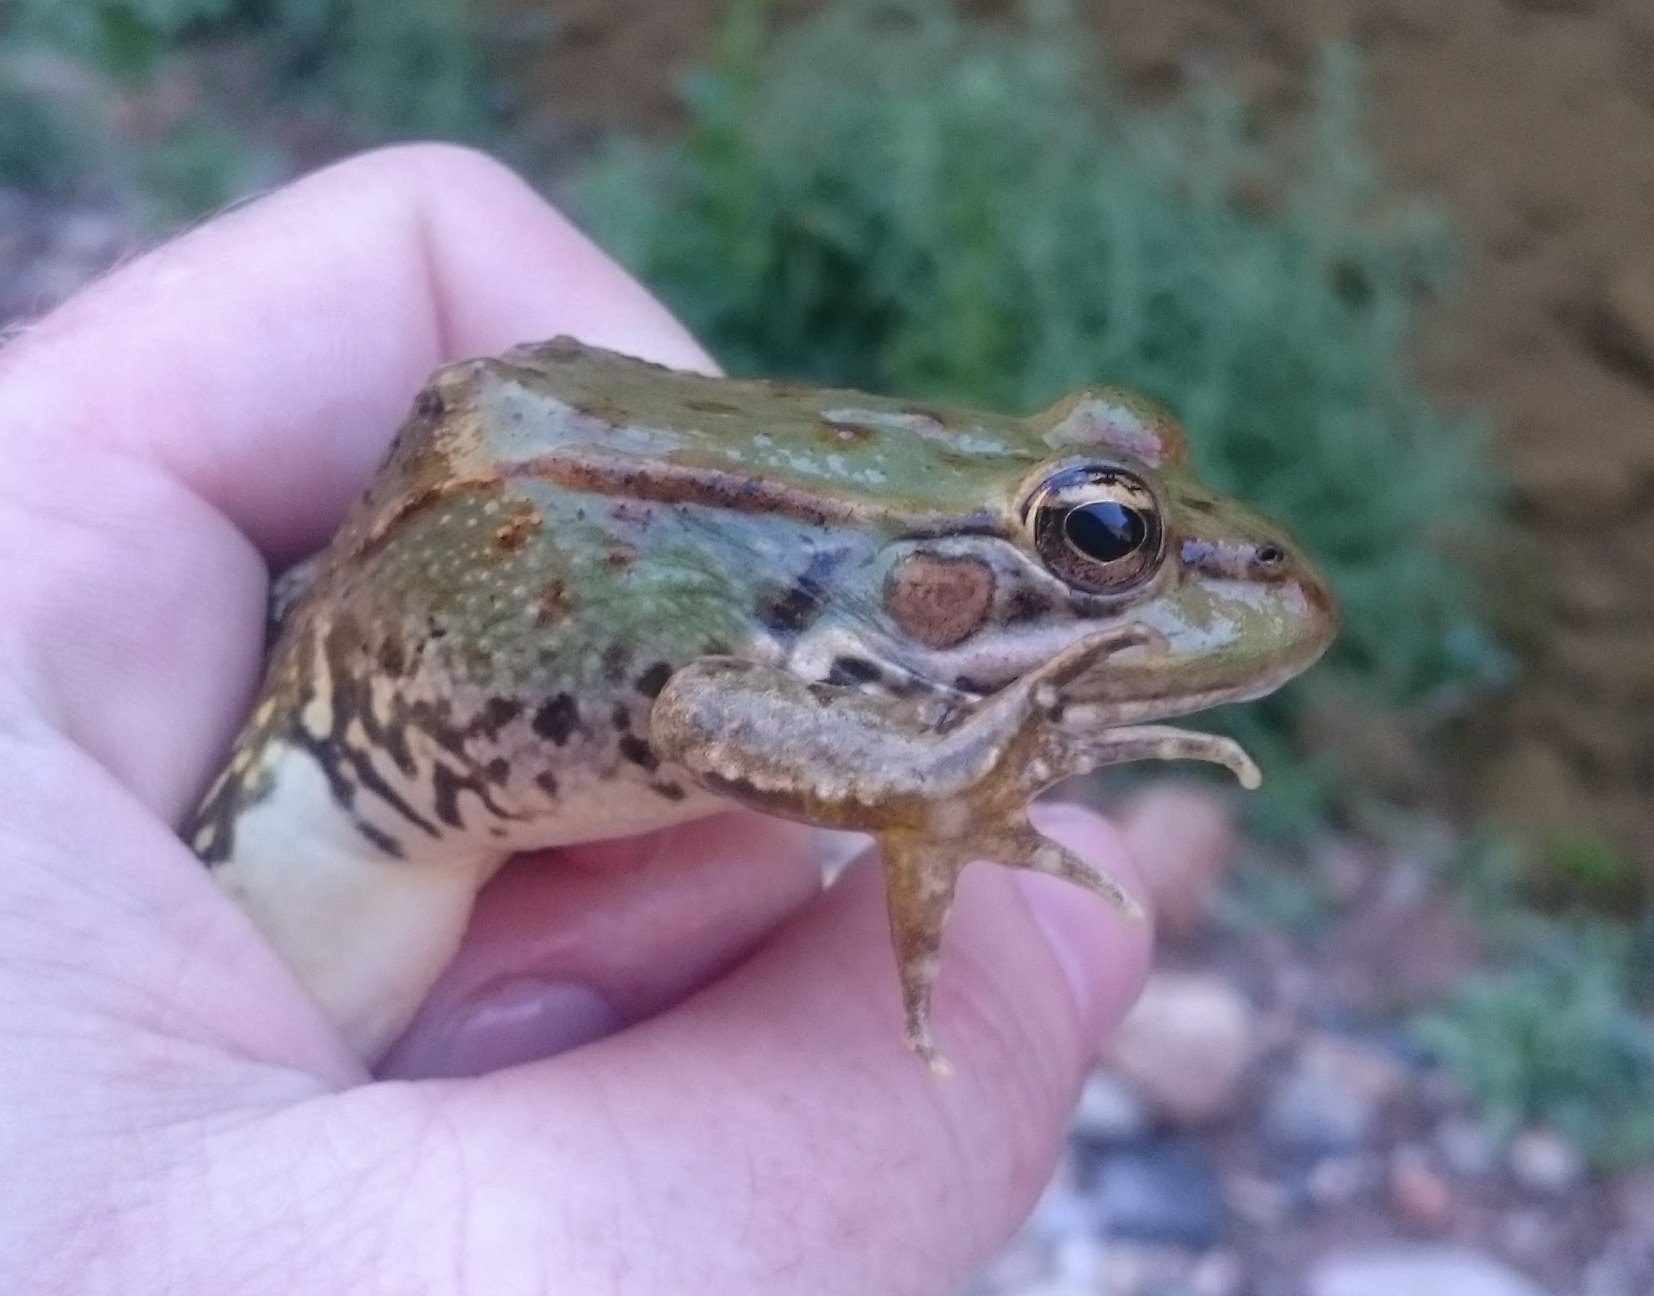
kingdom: Animalia
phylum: Chordata
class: Amphibia
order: Anura
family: Ranidae
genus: Pelophylax
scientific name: Pelophylax saharicus
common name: Sahara frog
